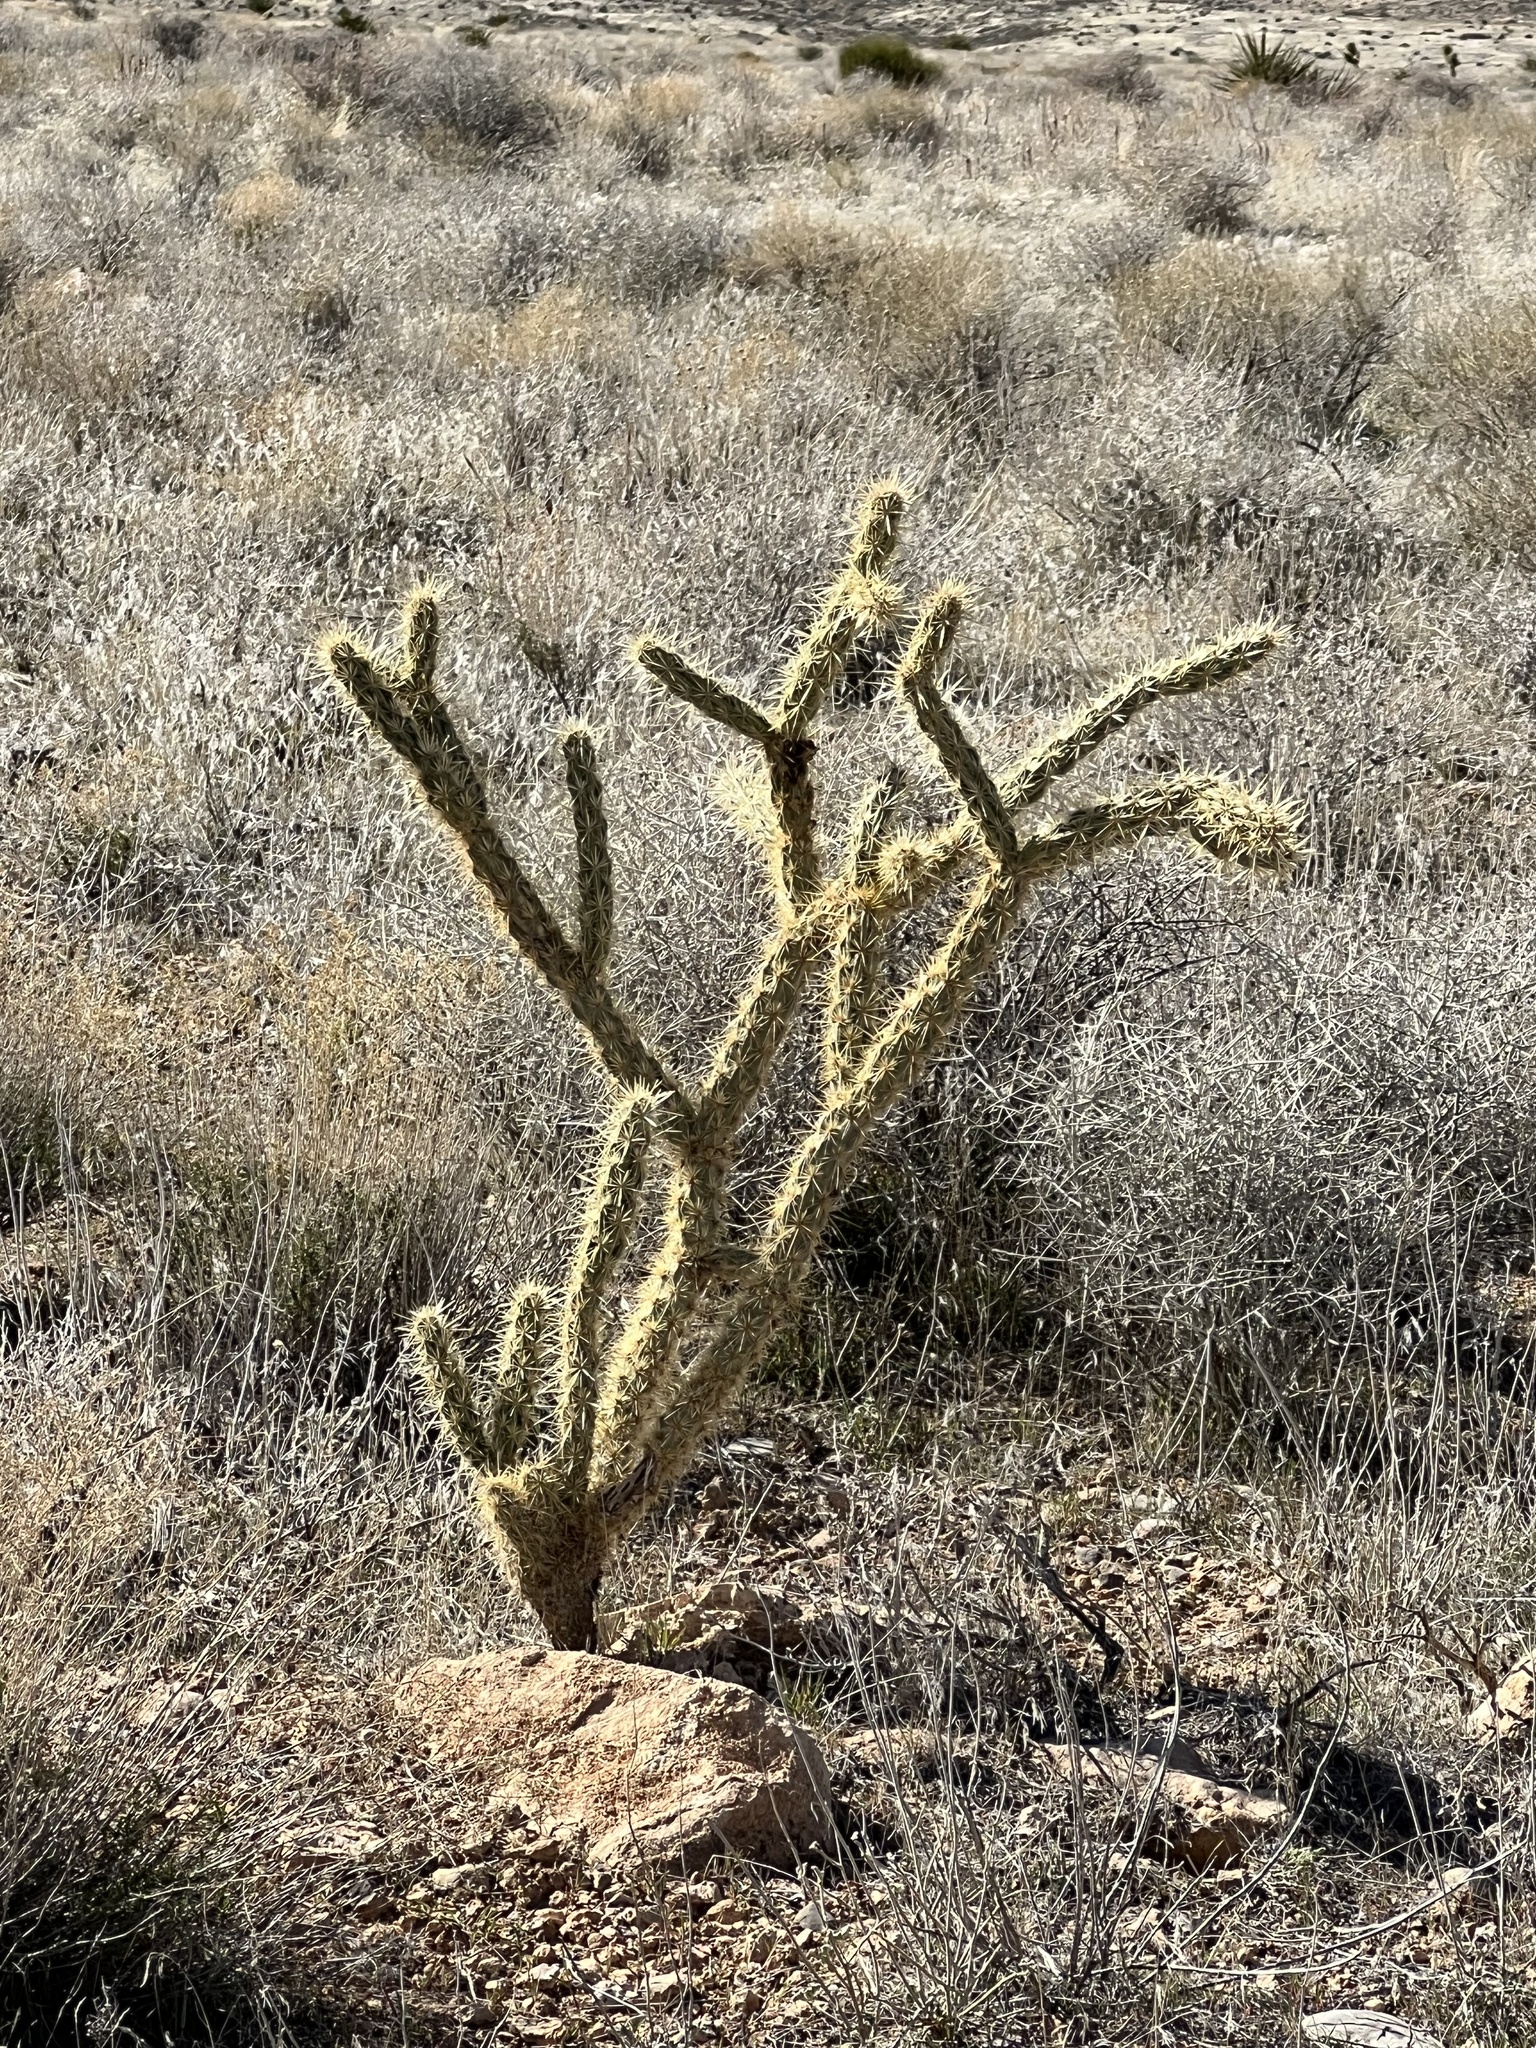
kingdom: Plantae
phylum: Tracheophyta
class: Magnoliopsida
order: Caryophyllales
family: Cactaceae
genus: Cylindropuntia
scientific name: Cylindropuntia acanthocarpa
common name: Buckhorn cholla
